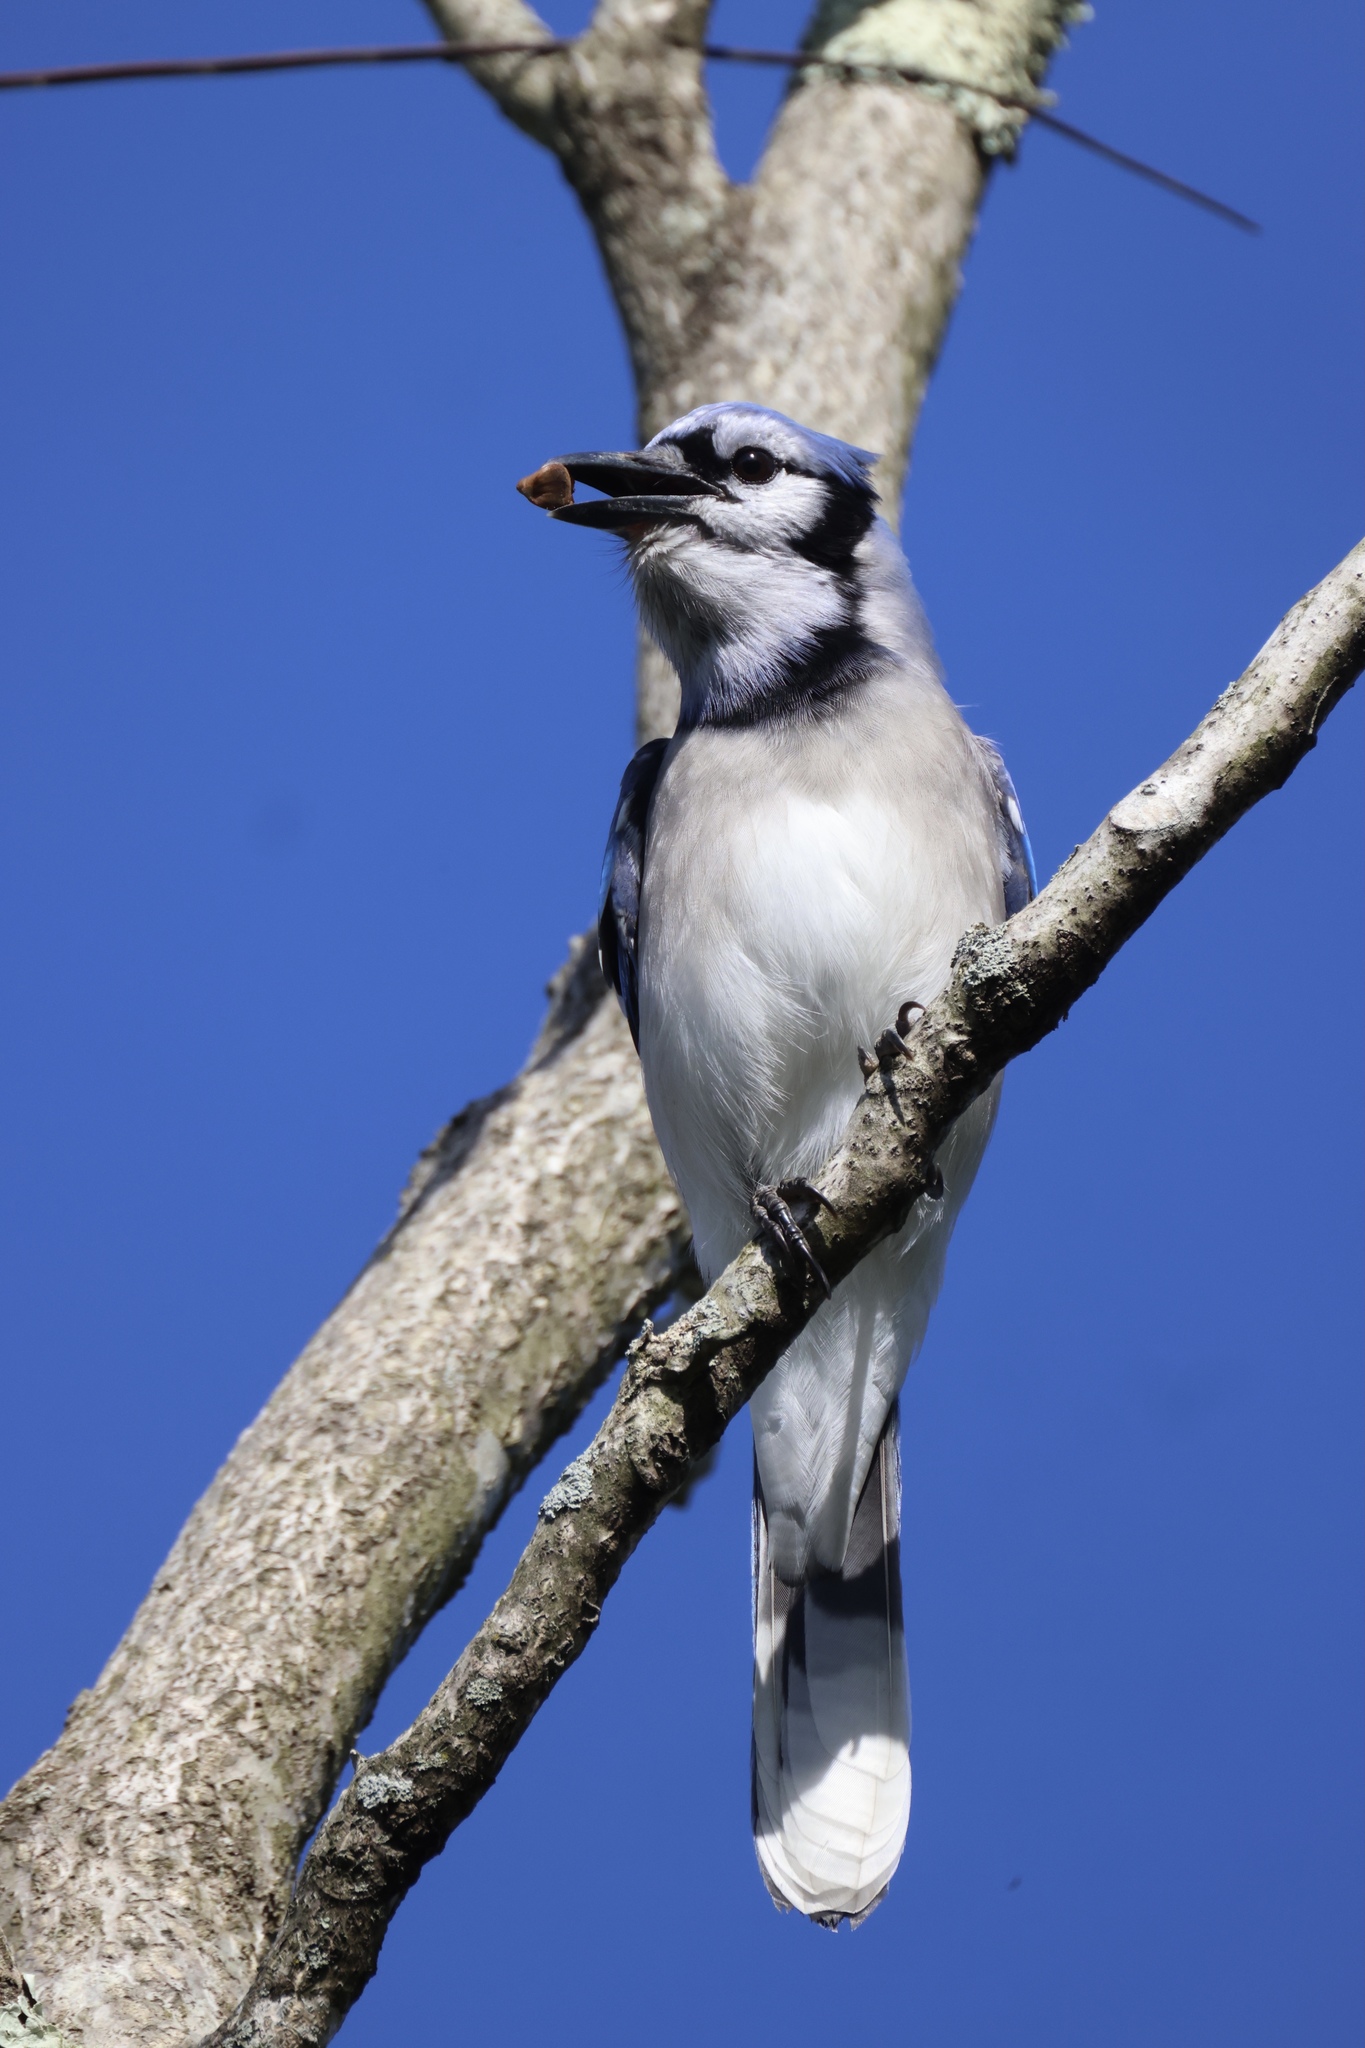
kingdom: Animalia
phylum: Chordata
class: Aves
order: Passeriformes
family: Corvidae
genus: Cyanocitta
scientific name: Cyanocitta cristata
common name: Blue jay
